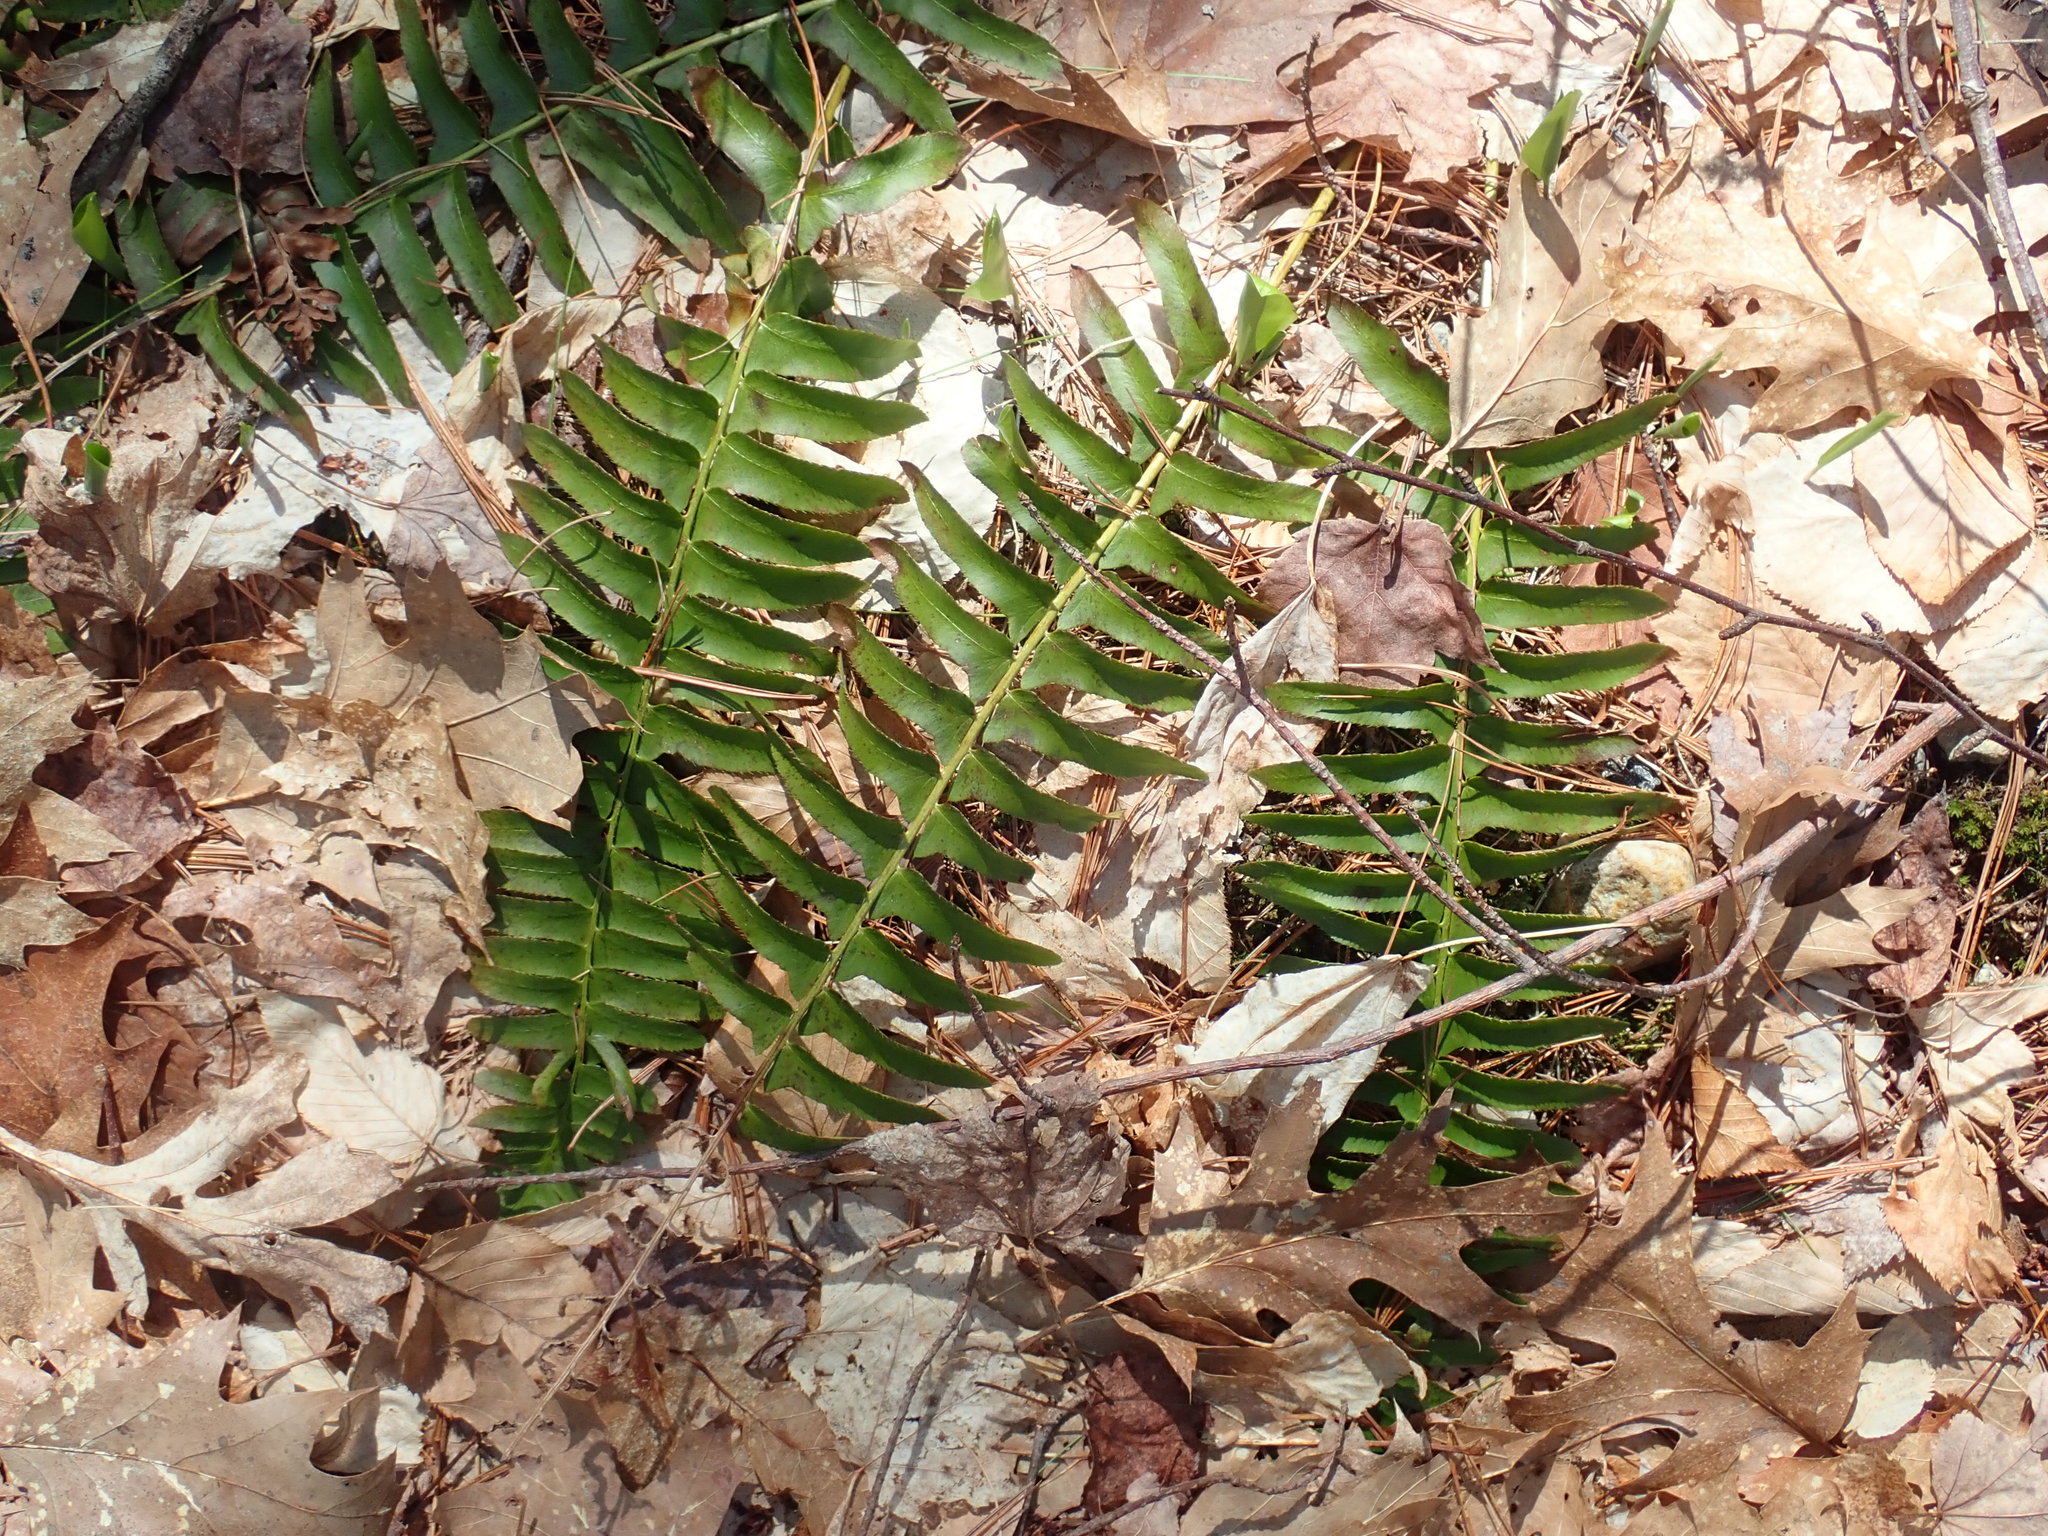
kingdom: Plantae
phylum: Tracheophyta
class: Polypodiopsida
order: Polypodiales
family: Dryopteridaceae
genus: Polystichum
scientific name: Polystichum acrostichoides
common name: Christmas fern
